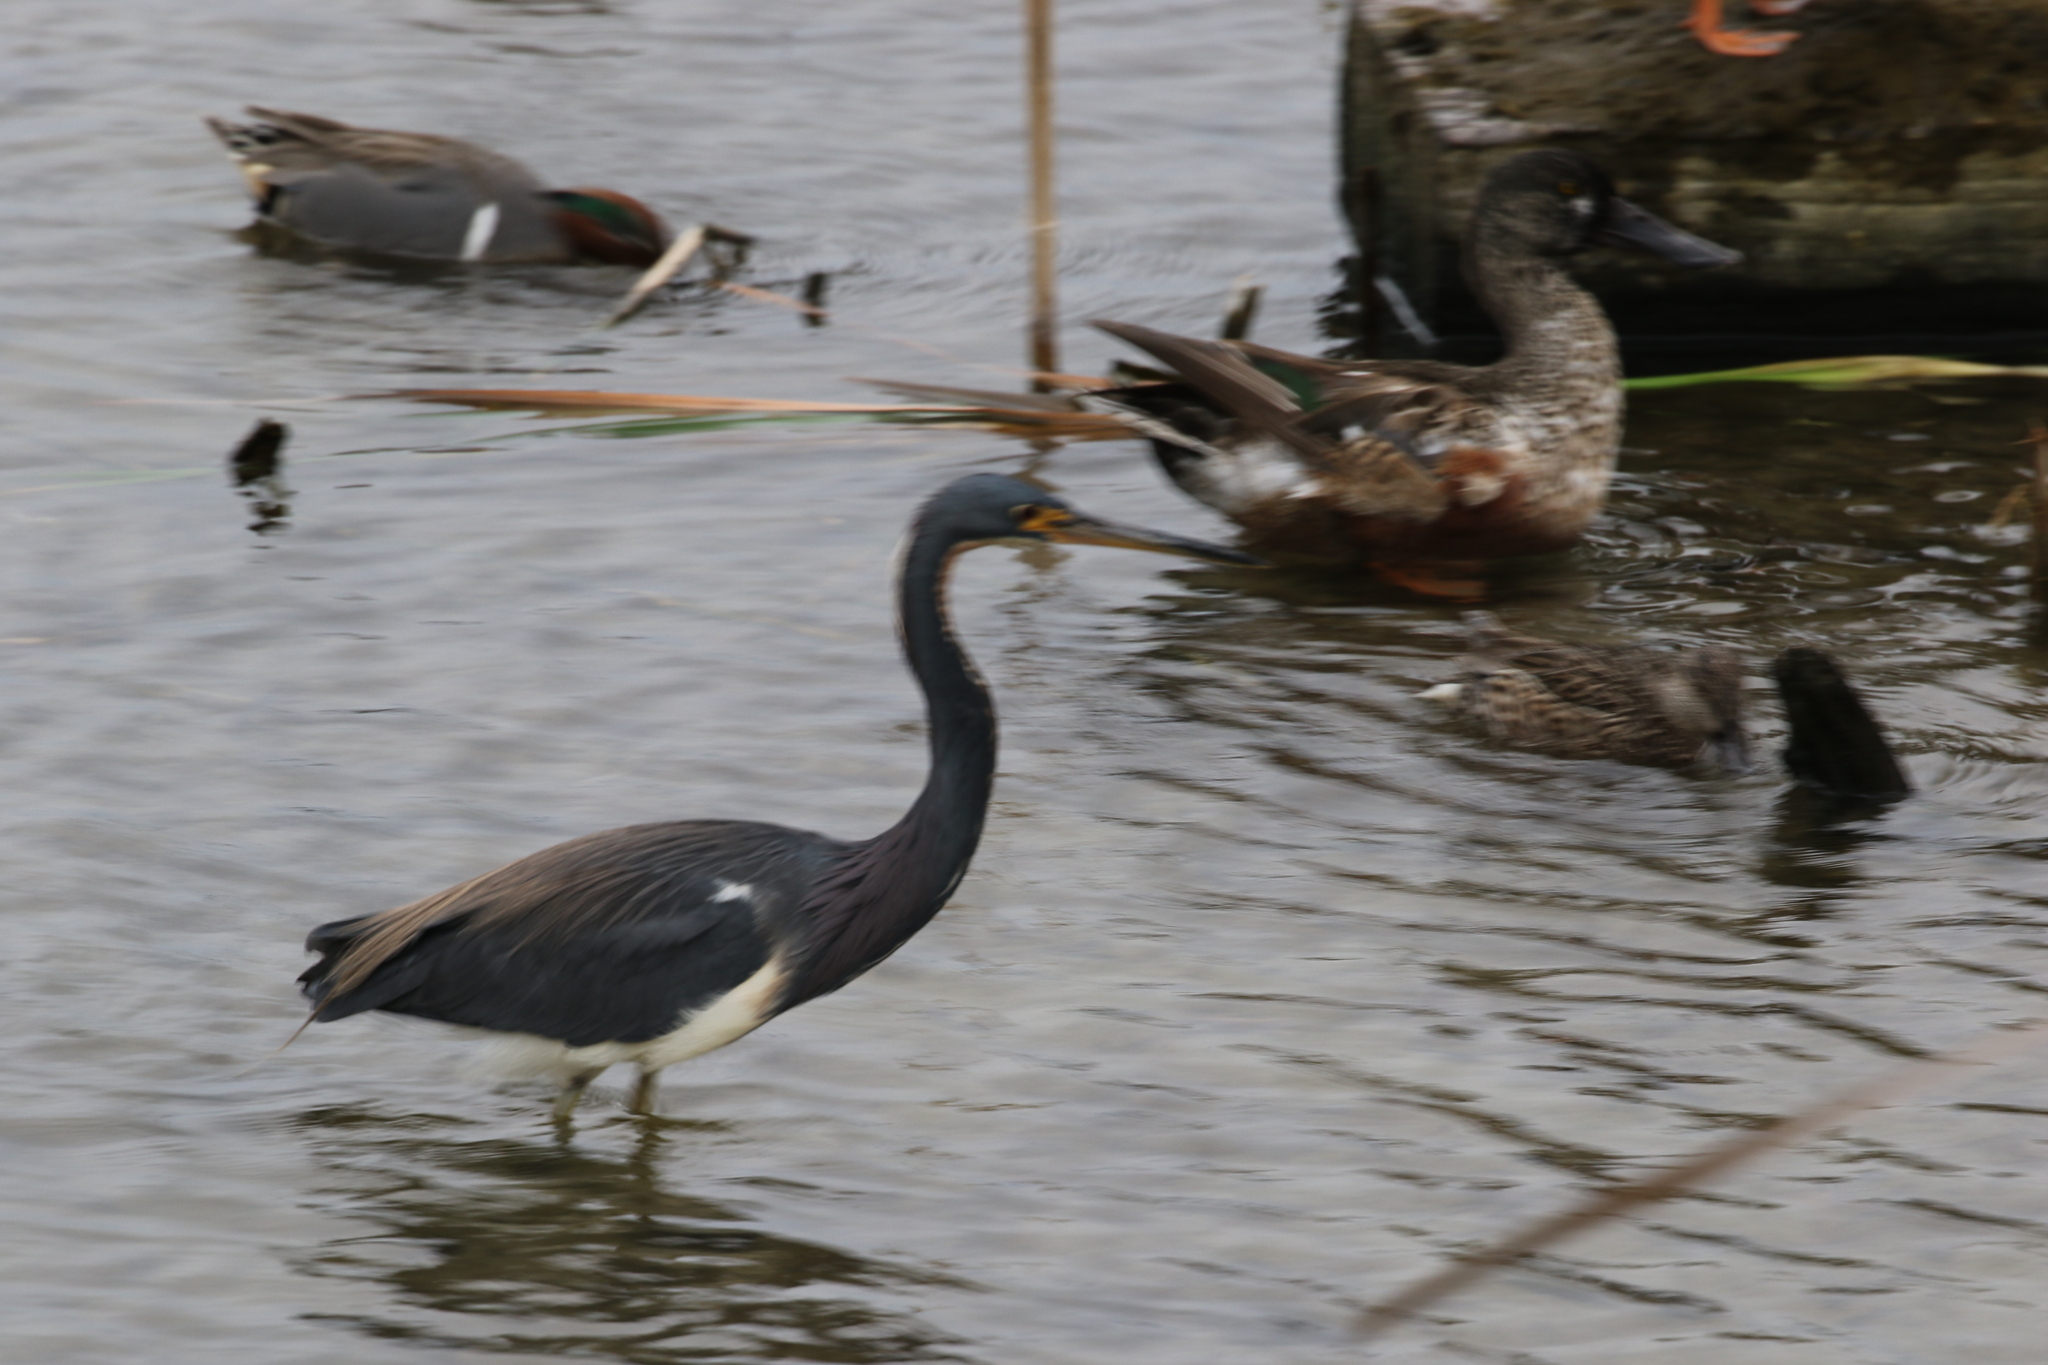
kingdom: Animalia
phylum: Chordata
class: Aves
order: Pelecaniformes
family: Ardeidae
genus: Egretta
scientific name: Egretta tricolor
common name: Tricolored heron
